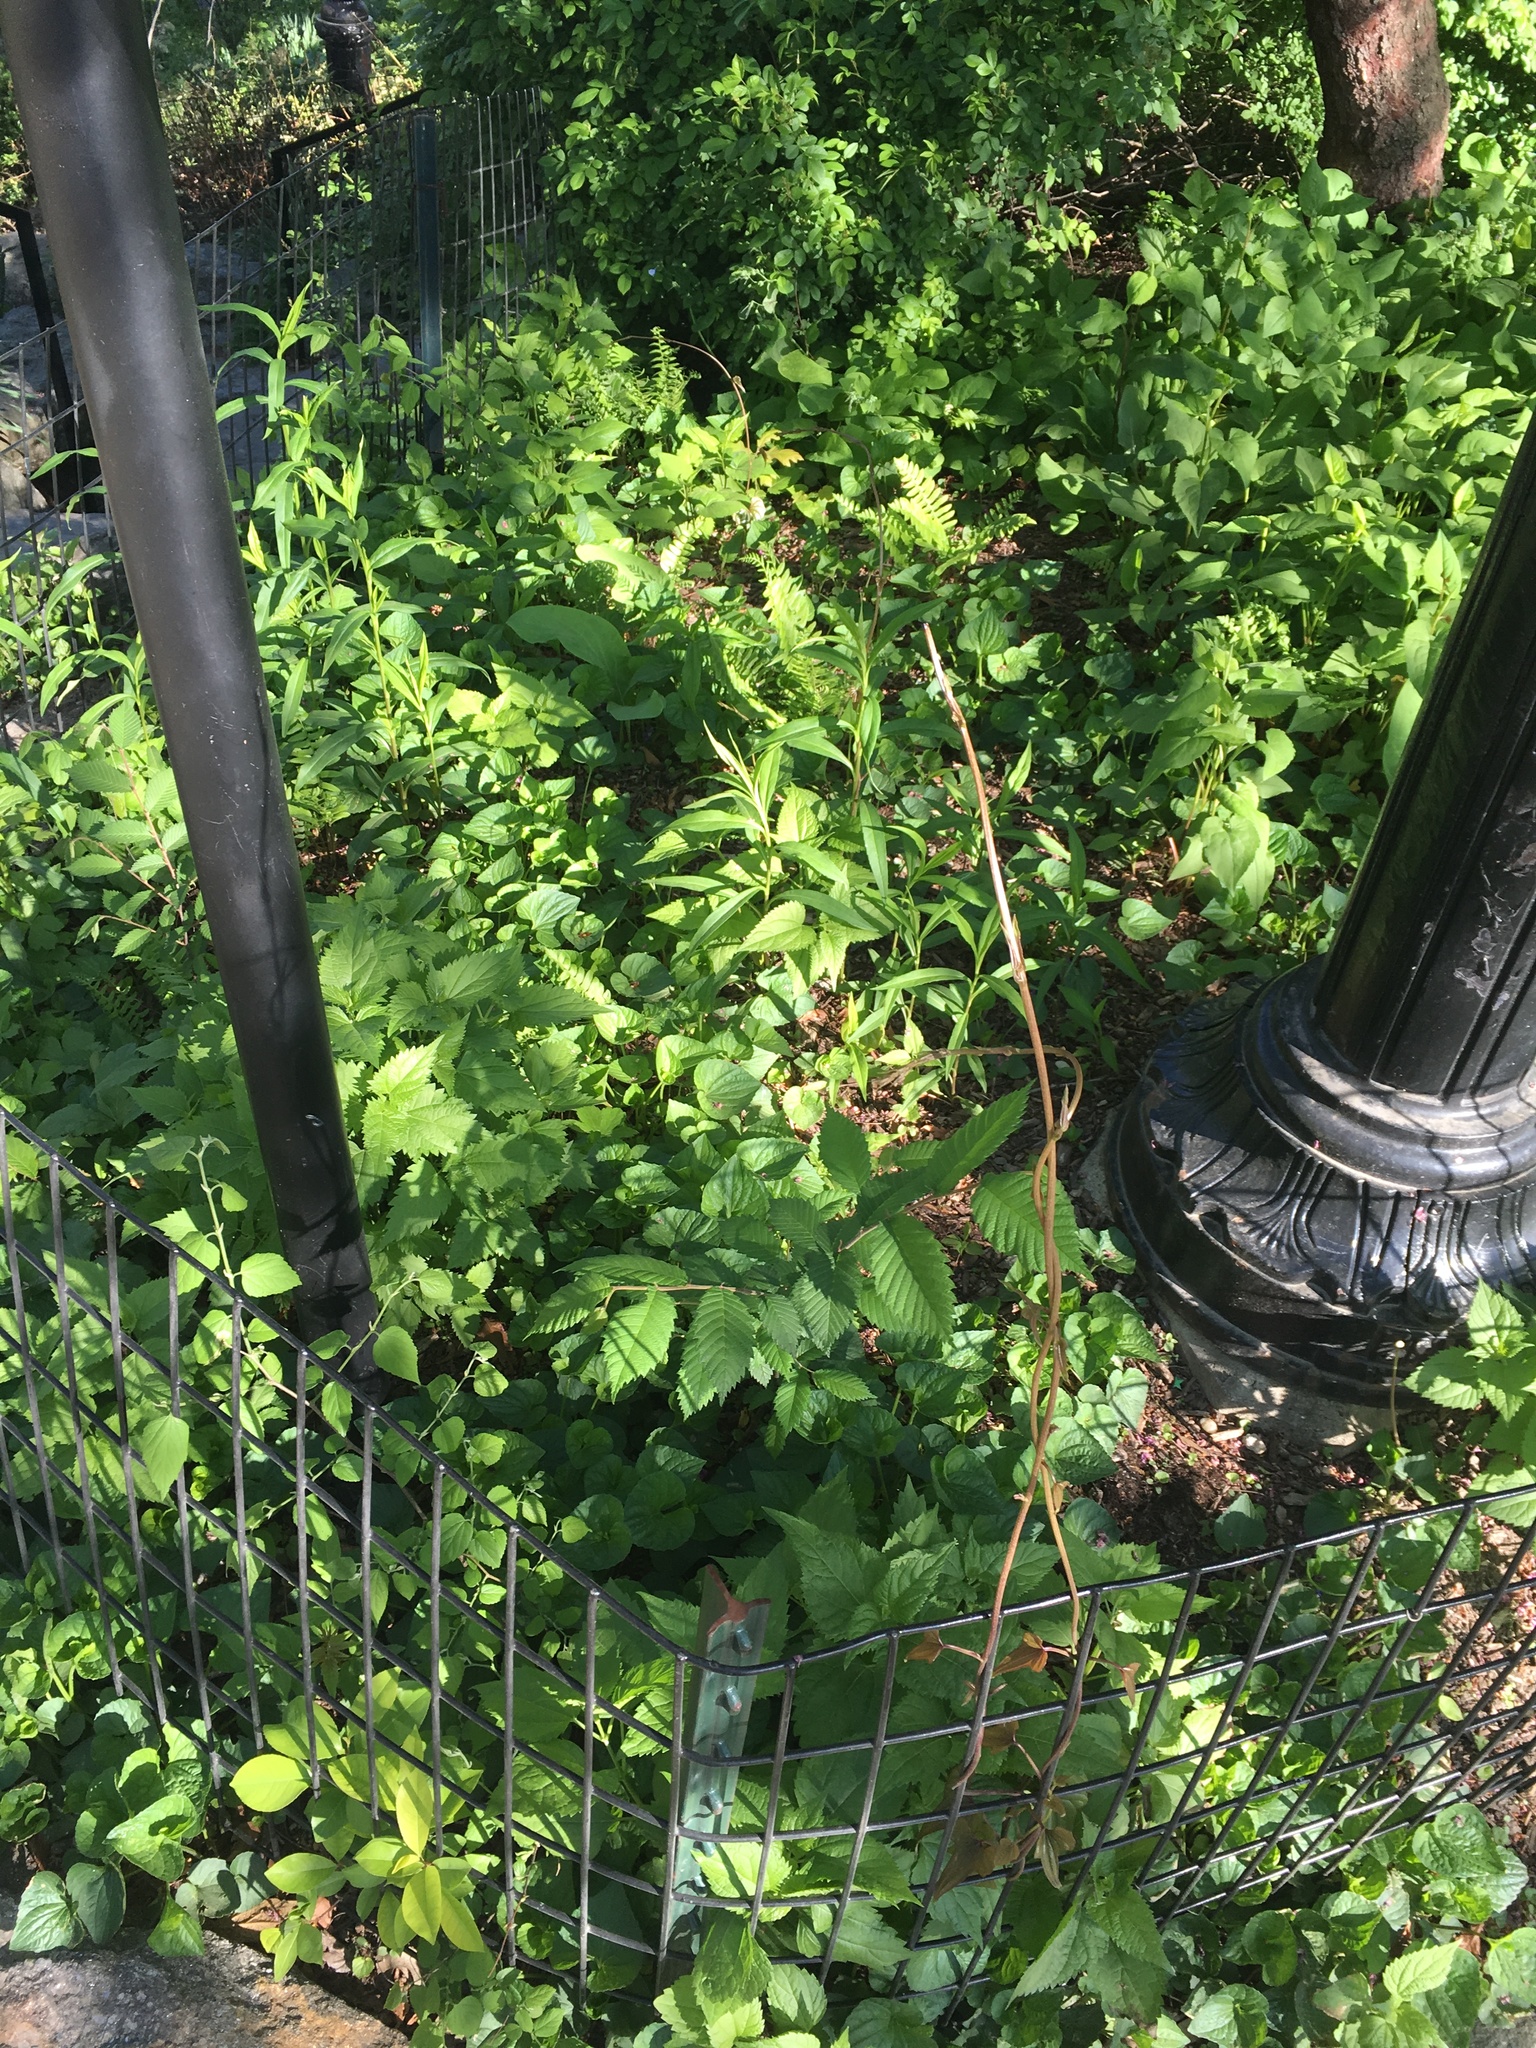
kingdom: Plantae
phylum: Tracheophyta
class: Liliopsida
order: Dioscoreales
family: Dioscoreaceae
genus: Dioscorea
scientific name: Dioscorea polystachya
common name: Chinese yam
